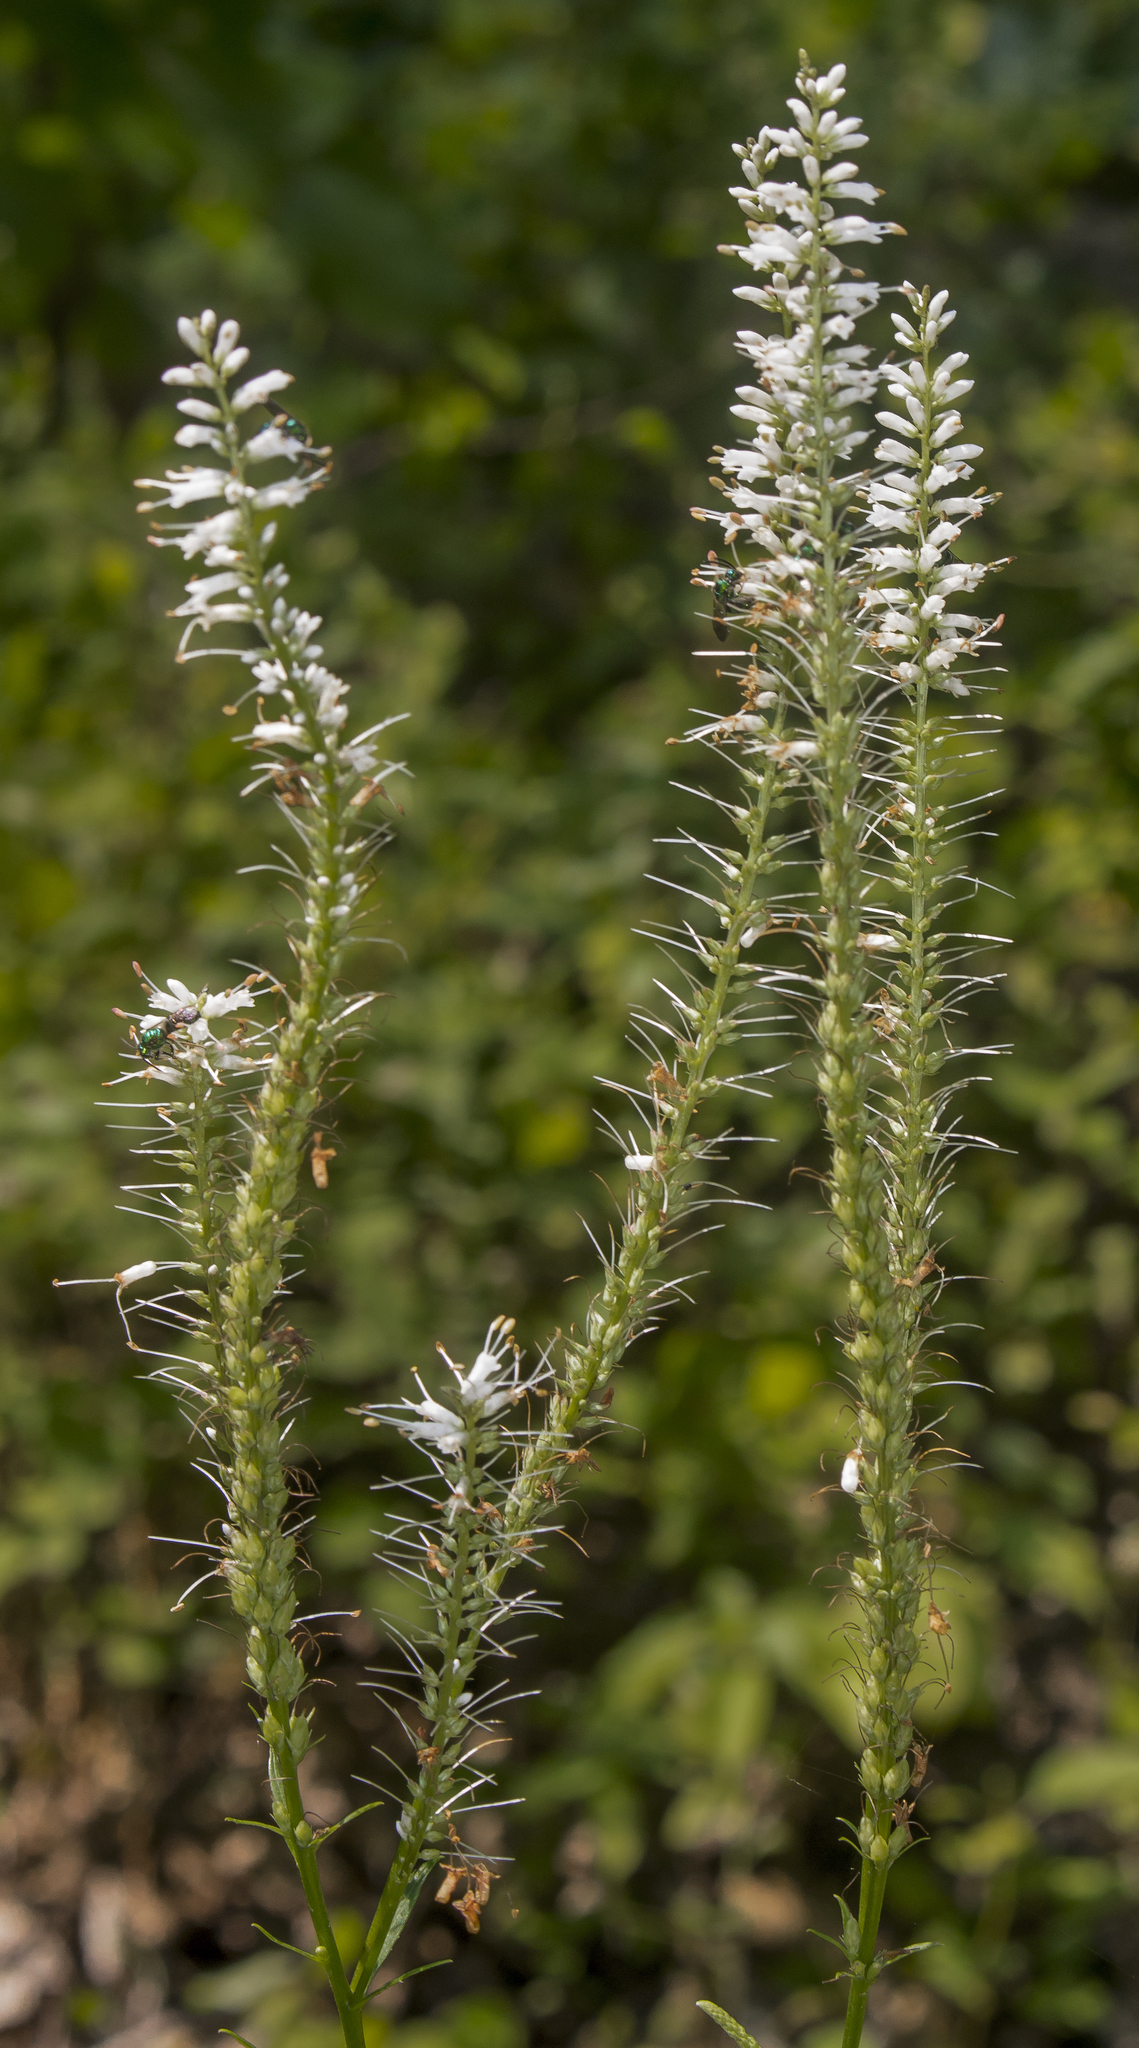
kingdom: Plantae
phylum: Tracheophyta
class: Magnoliopsida
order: Lamiales
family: Plantaginaceae
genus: Veronicastrum
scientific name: Veronicastrum virginicum
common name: Blackroot
